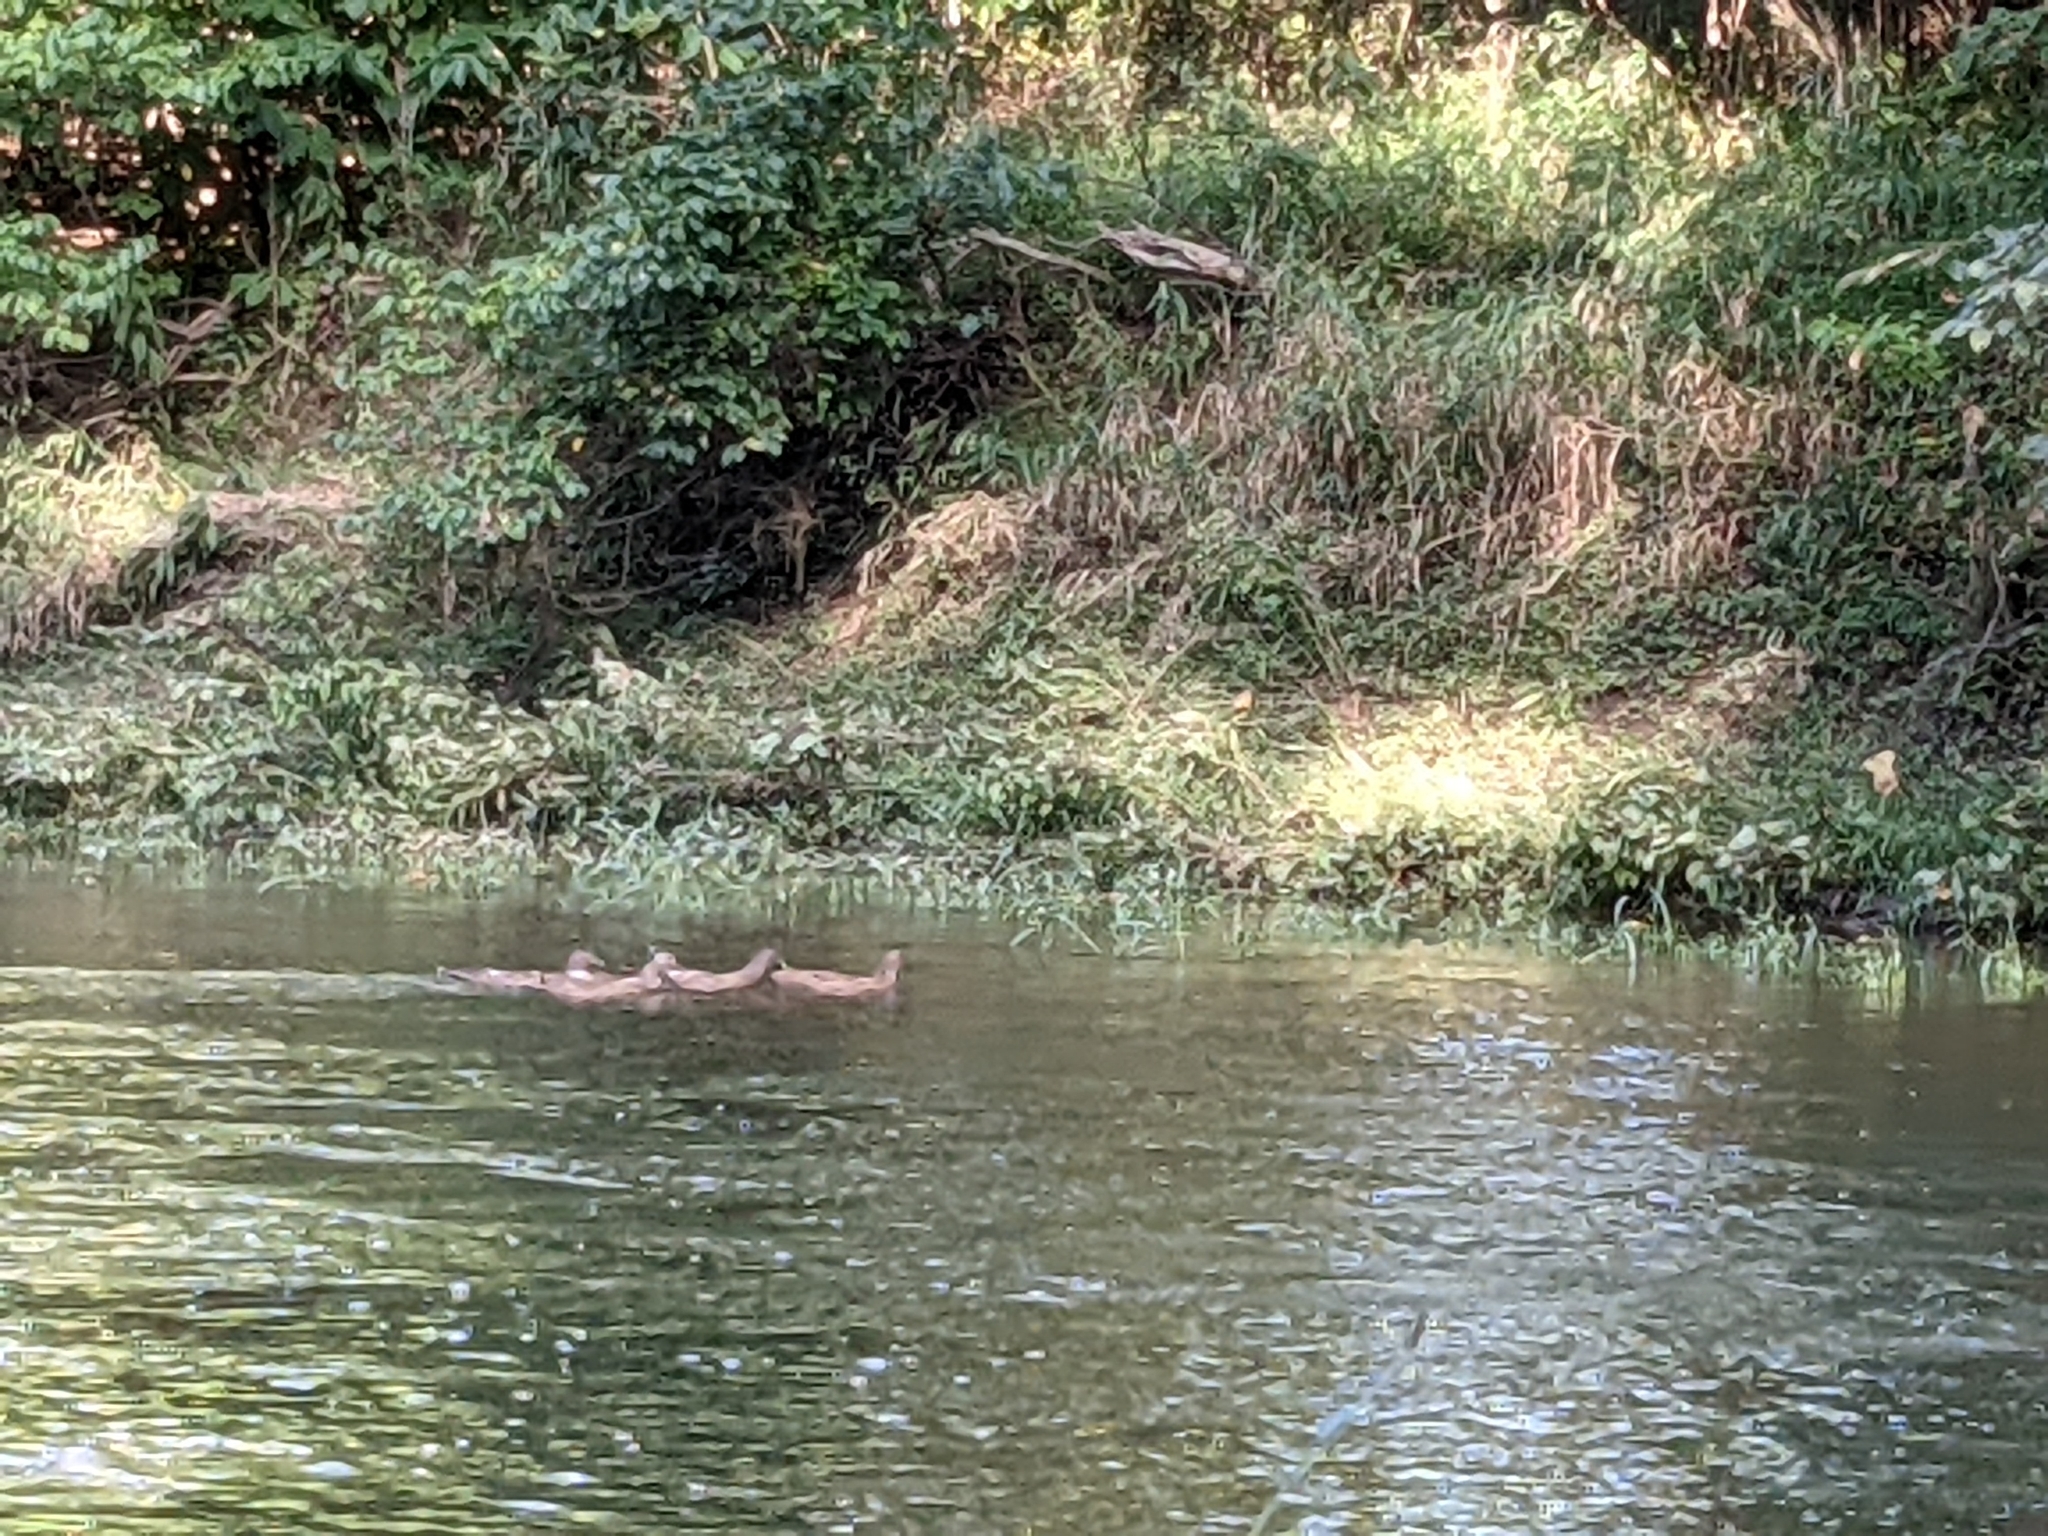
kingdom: Animalia
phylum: Chordata
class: Aves
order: Anseriformes
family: Anatidae
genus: Anas
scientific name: Anas platyrhynchos
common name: Mallard
